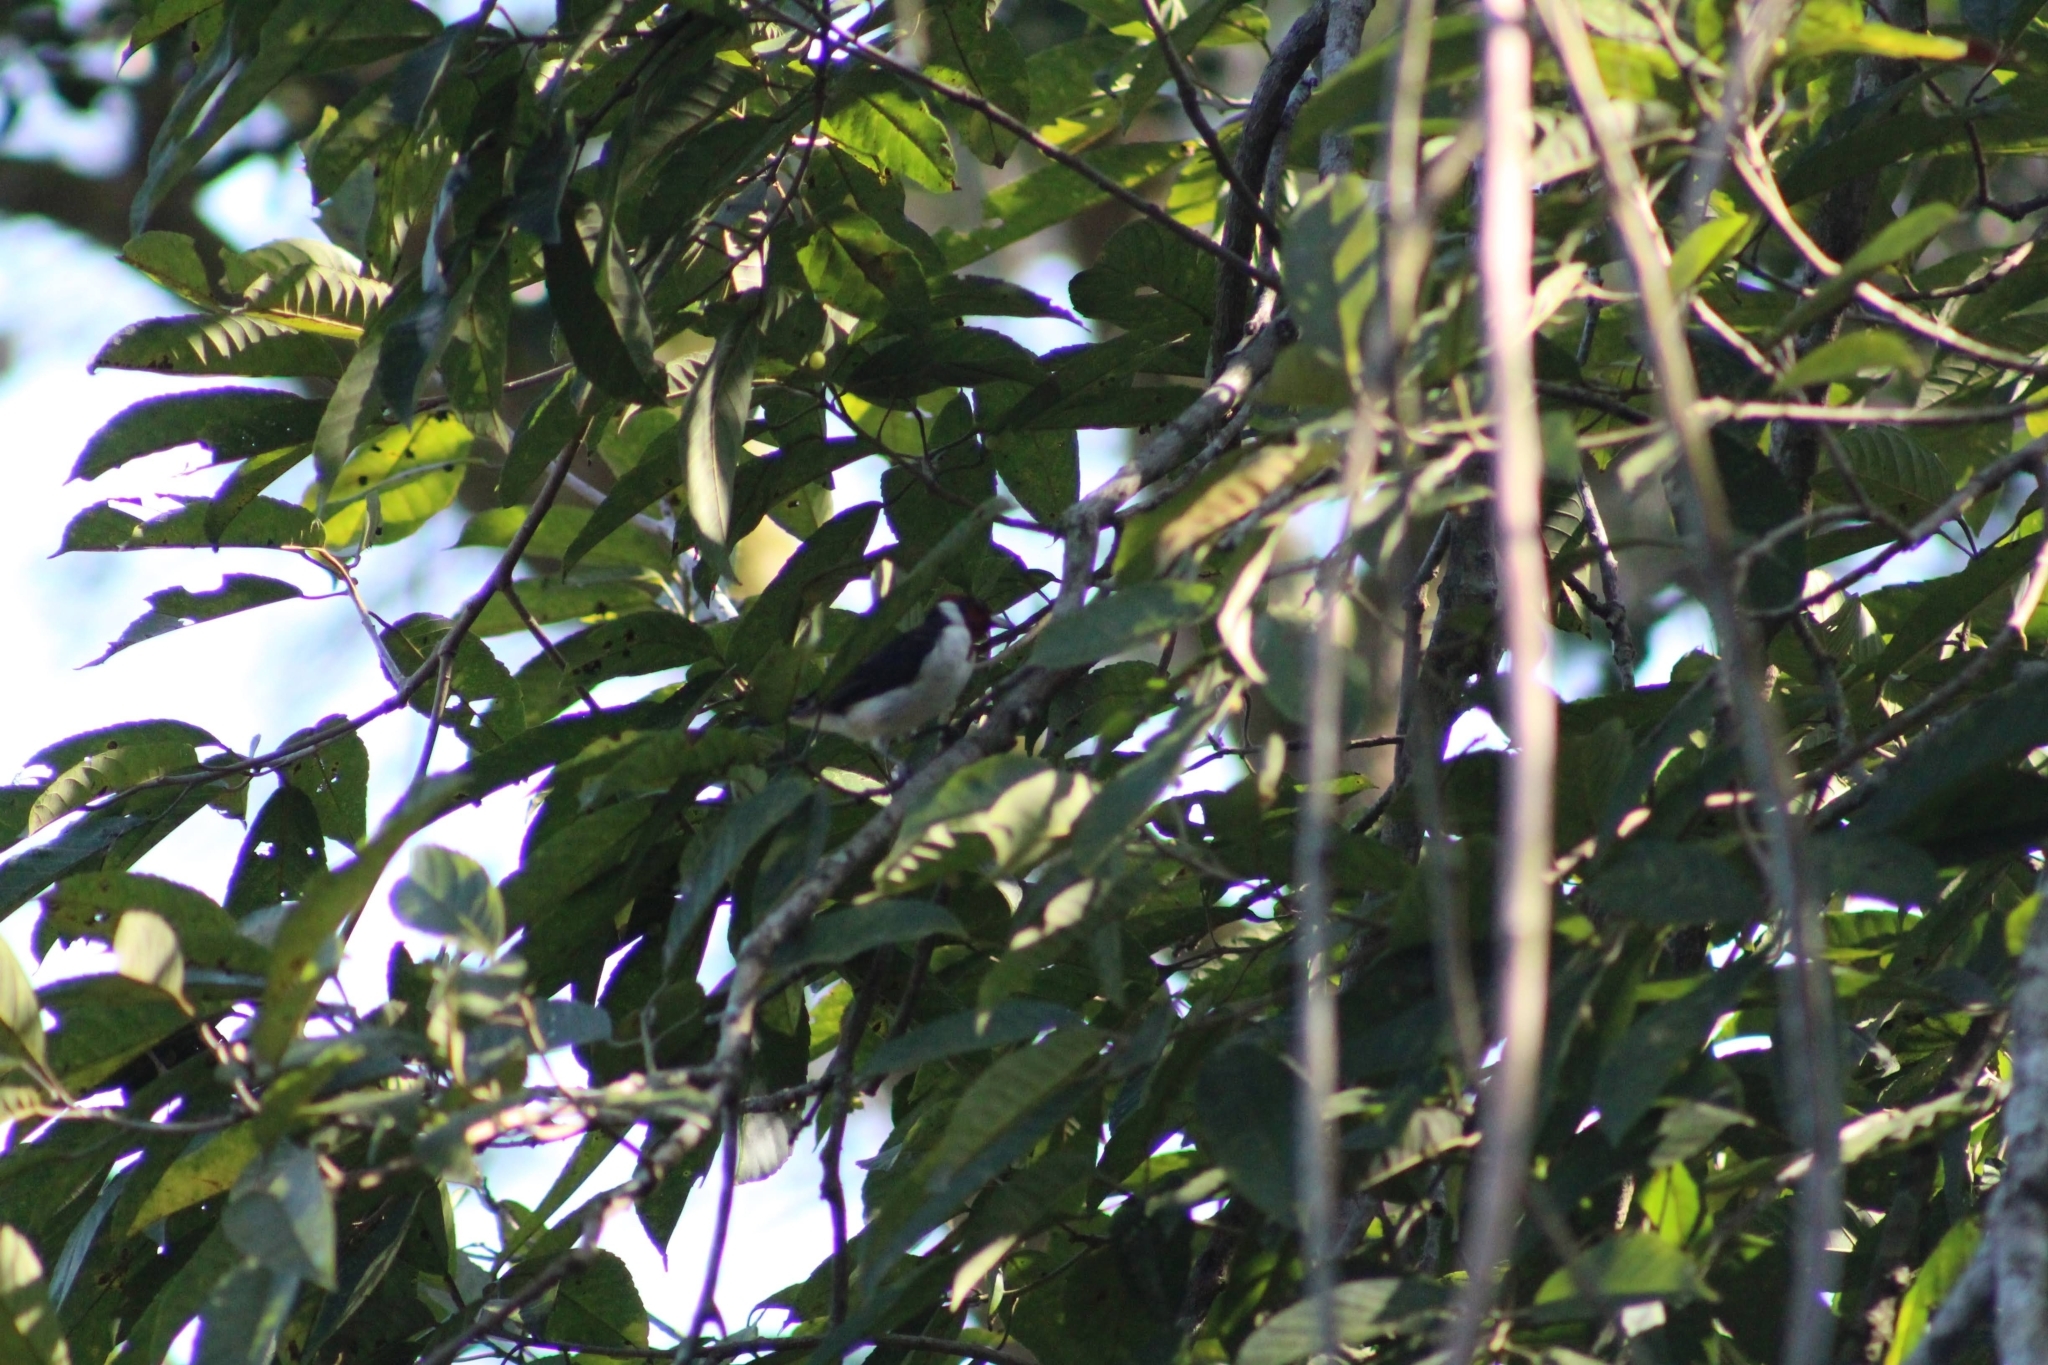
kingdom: Animalia
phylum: Chordata
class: Aves
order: Passeriformes
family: Thraupidae
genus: Paroaria
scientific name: Paroaria nigrogenis
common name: Masked cardinal
